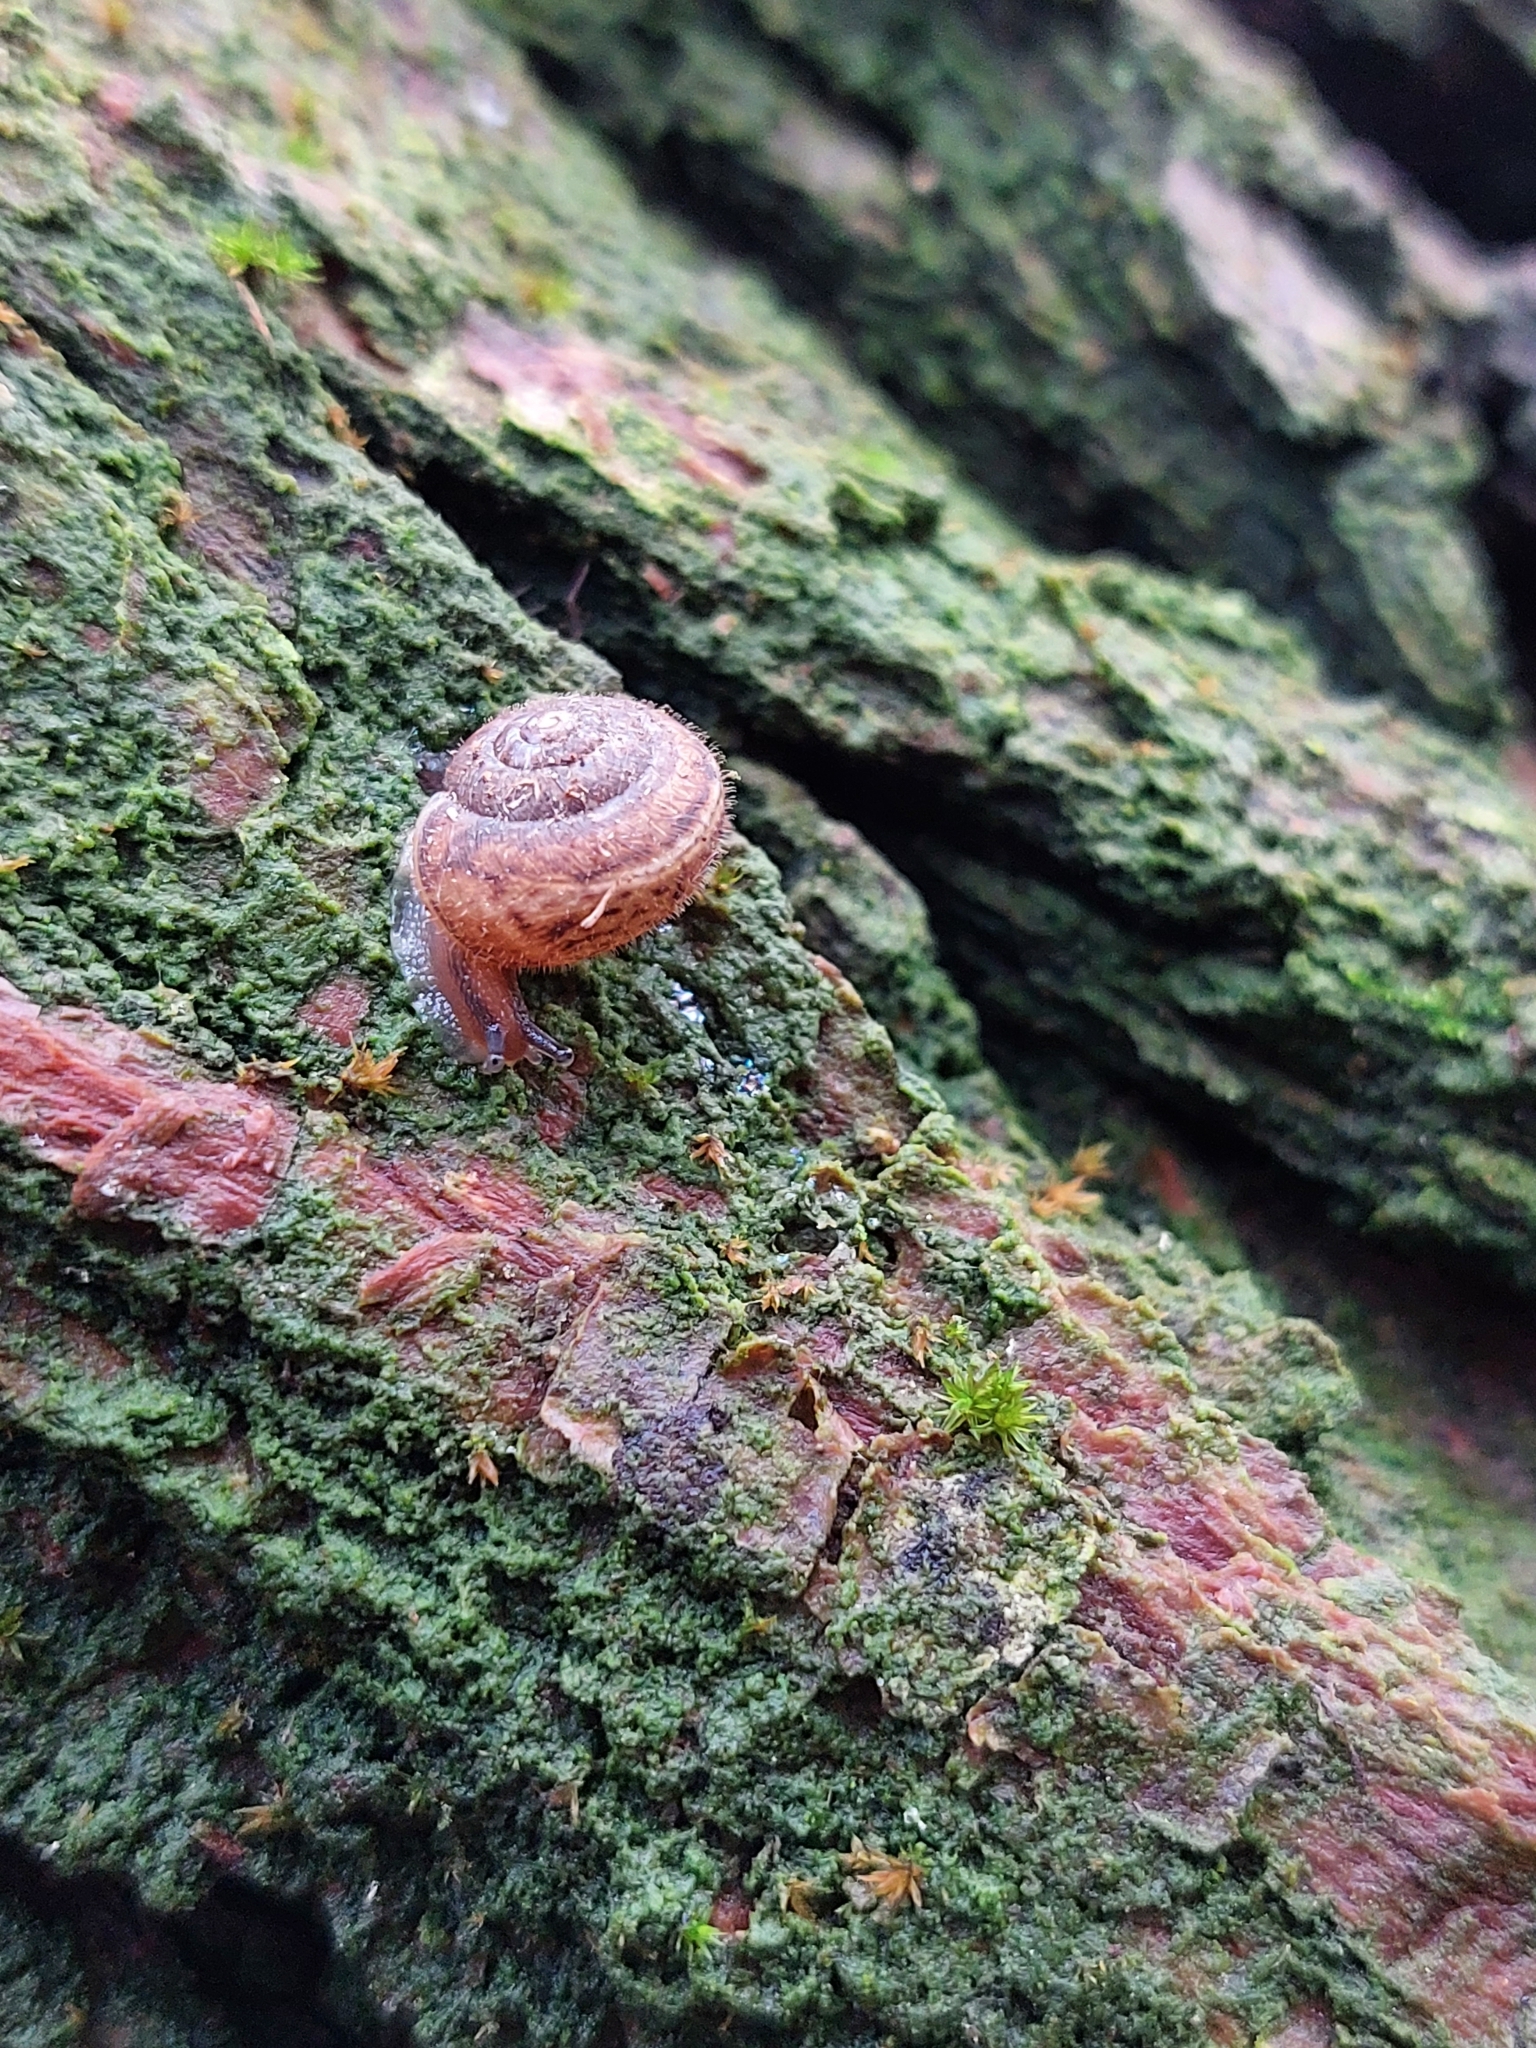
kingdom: Animalia
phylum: Mollusca
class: Gastropoda
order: Stylommatophora
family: Hygromiidae
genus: Euomphalia
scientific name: Euomphalia strigella
